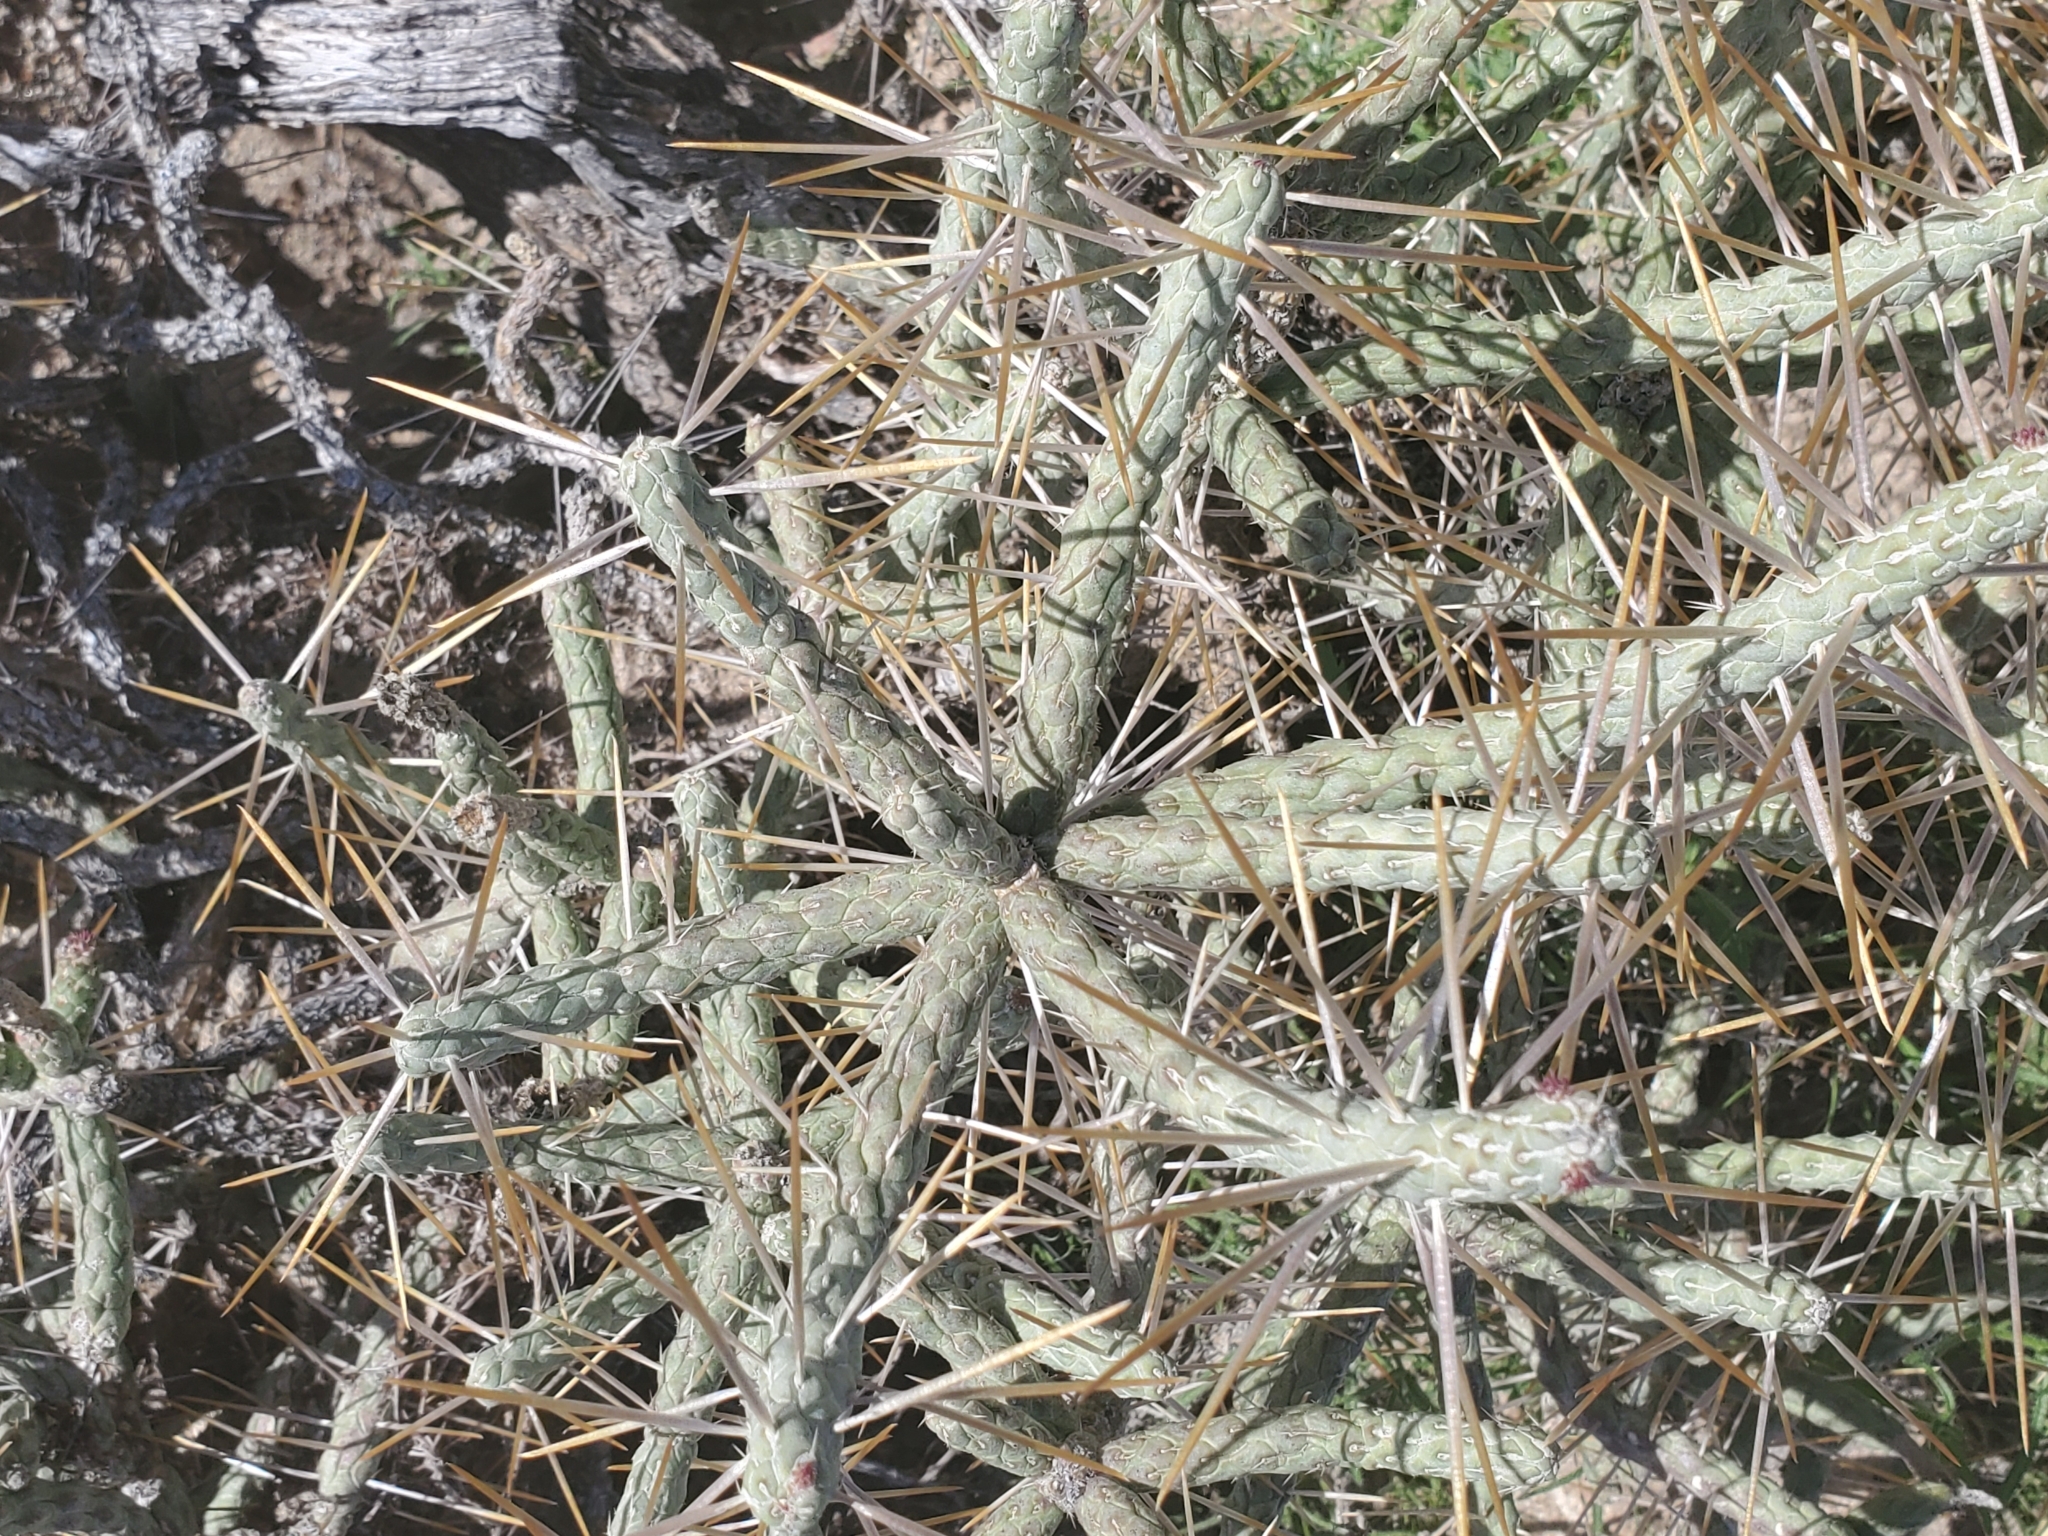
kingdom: Plantae
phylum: Tracheophyta
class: Magnoliopsida
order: Caryophyllales
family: Cactaceae
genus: Cylindropuntia
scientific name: Cylindropuntia ramosissima
